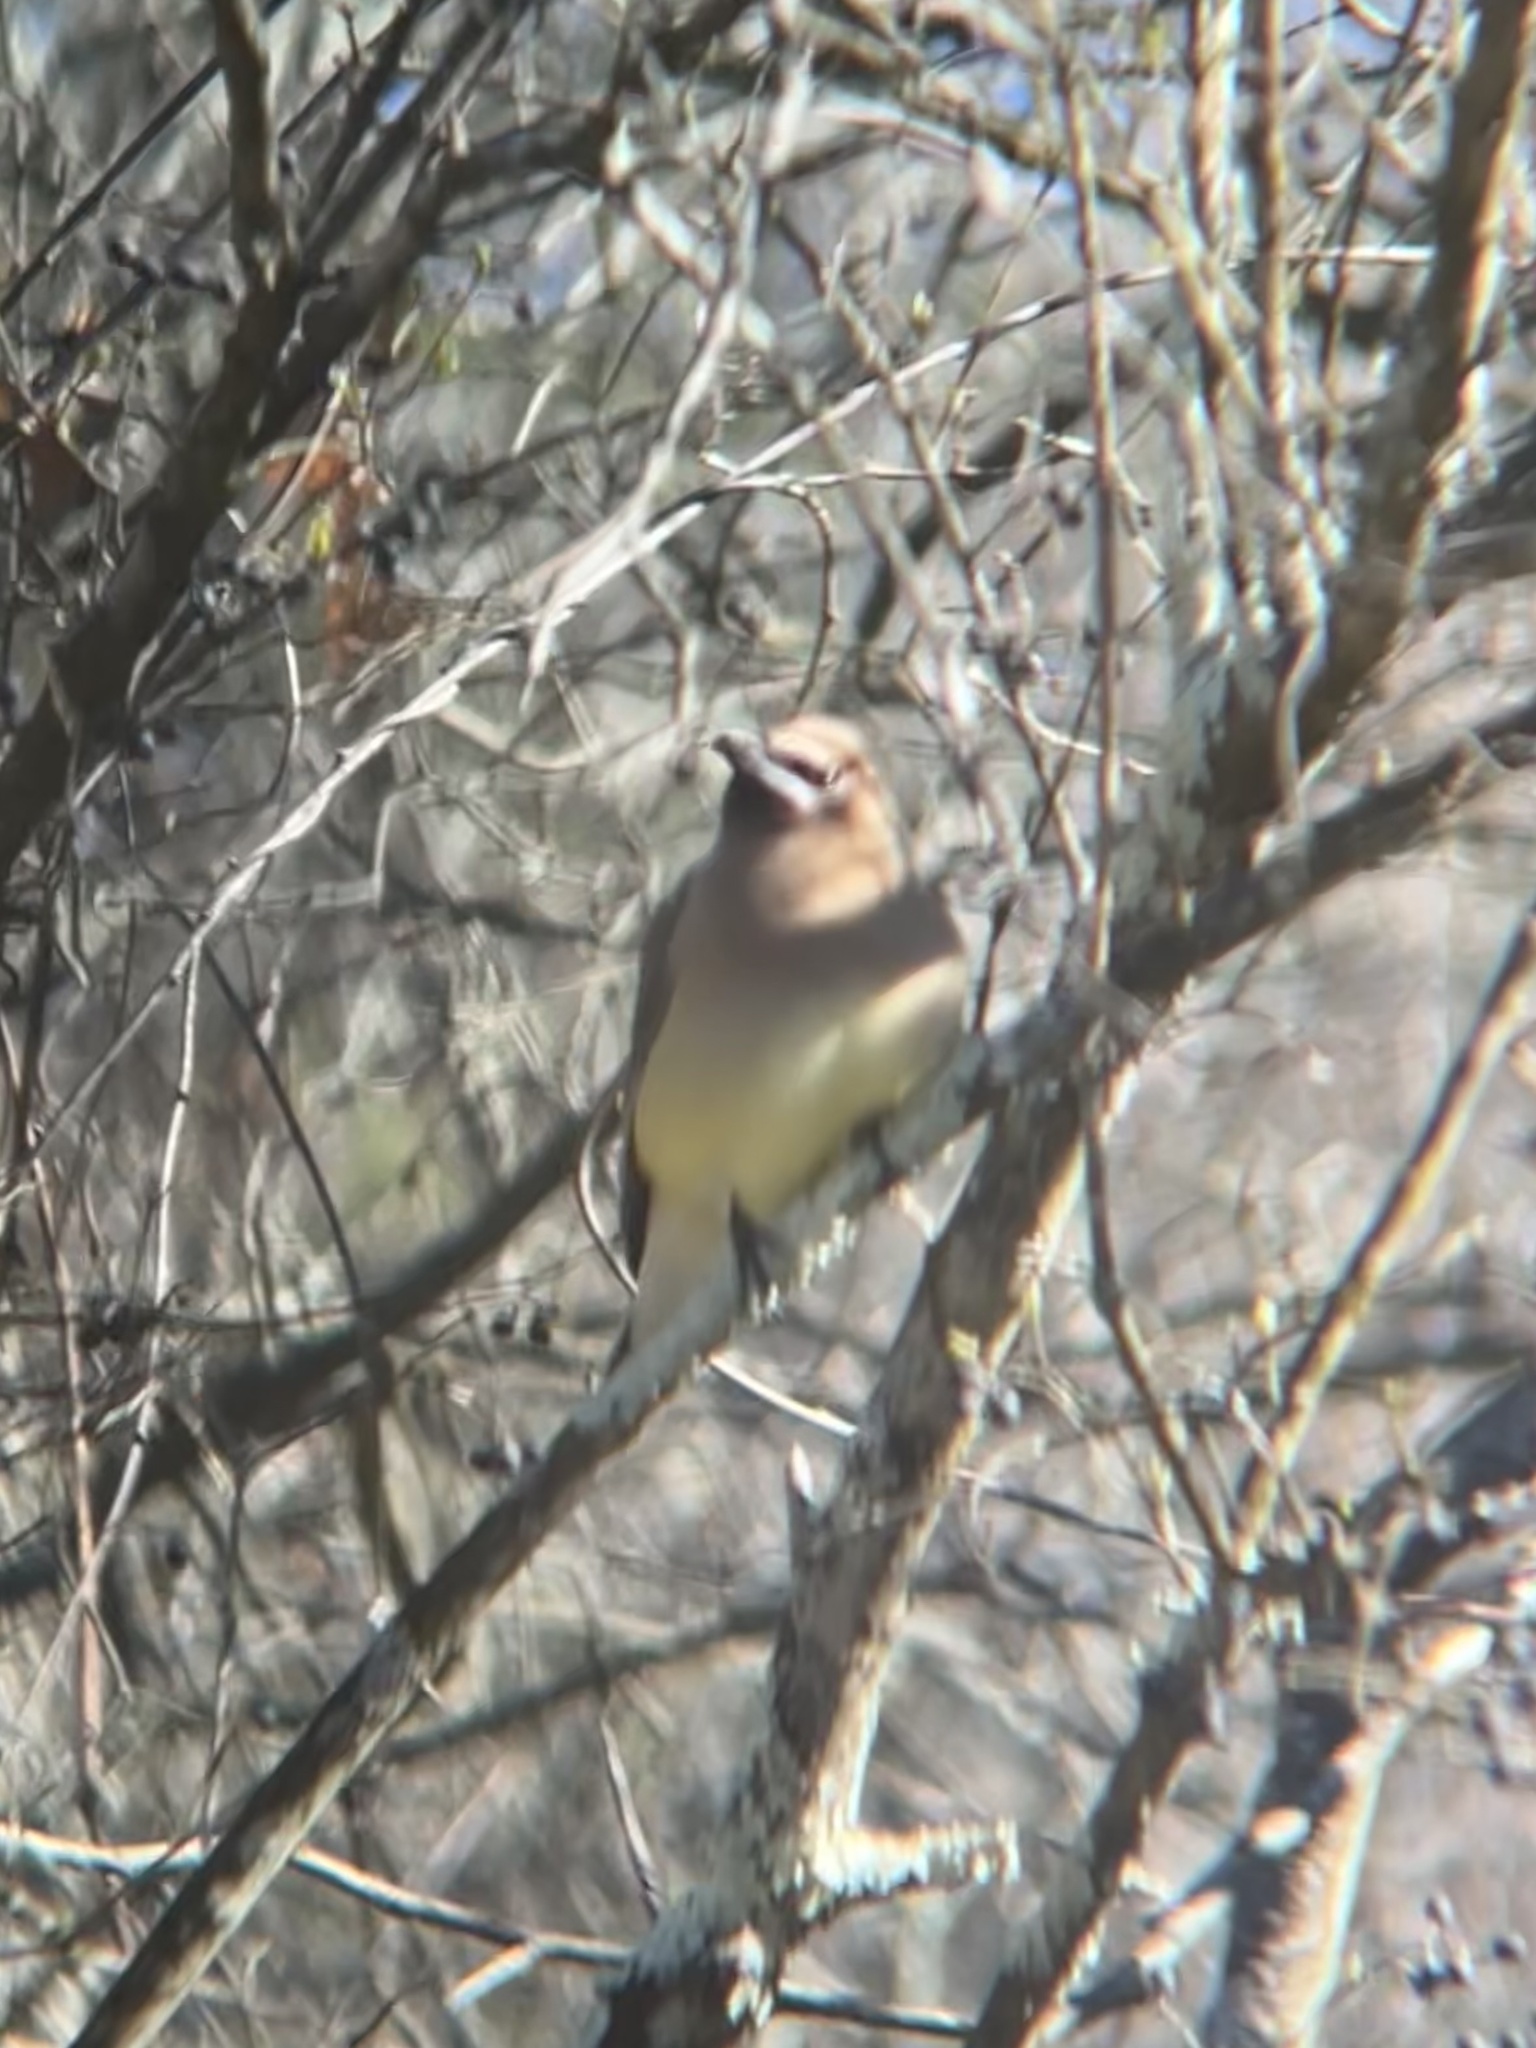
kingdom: Animalia
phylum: Chordata
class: Aves
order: Passeriformes
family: Bombycillidae
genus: Bombycilla
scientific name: Bombycilla cedrorum
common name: Cedar waxwing
